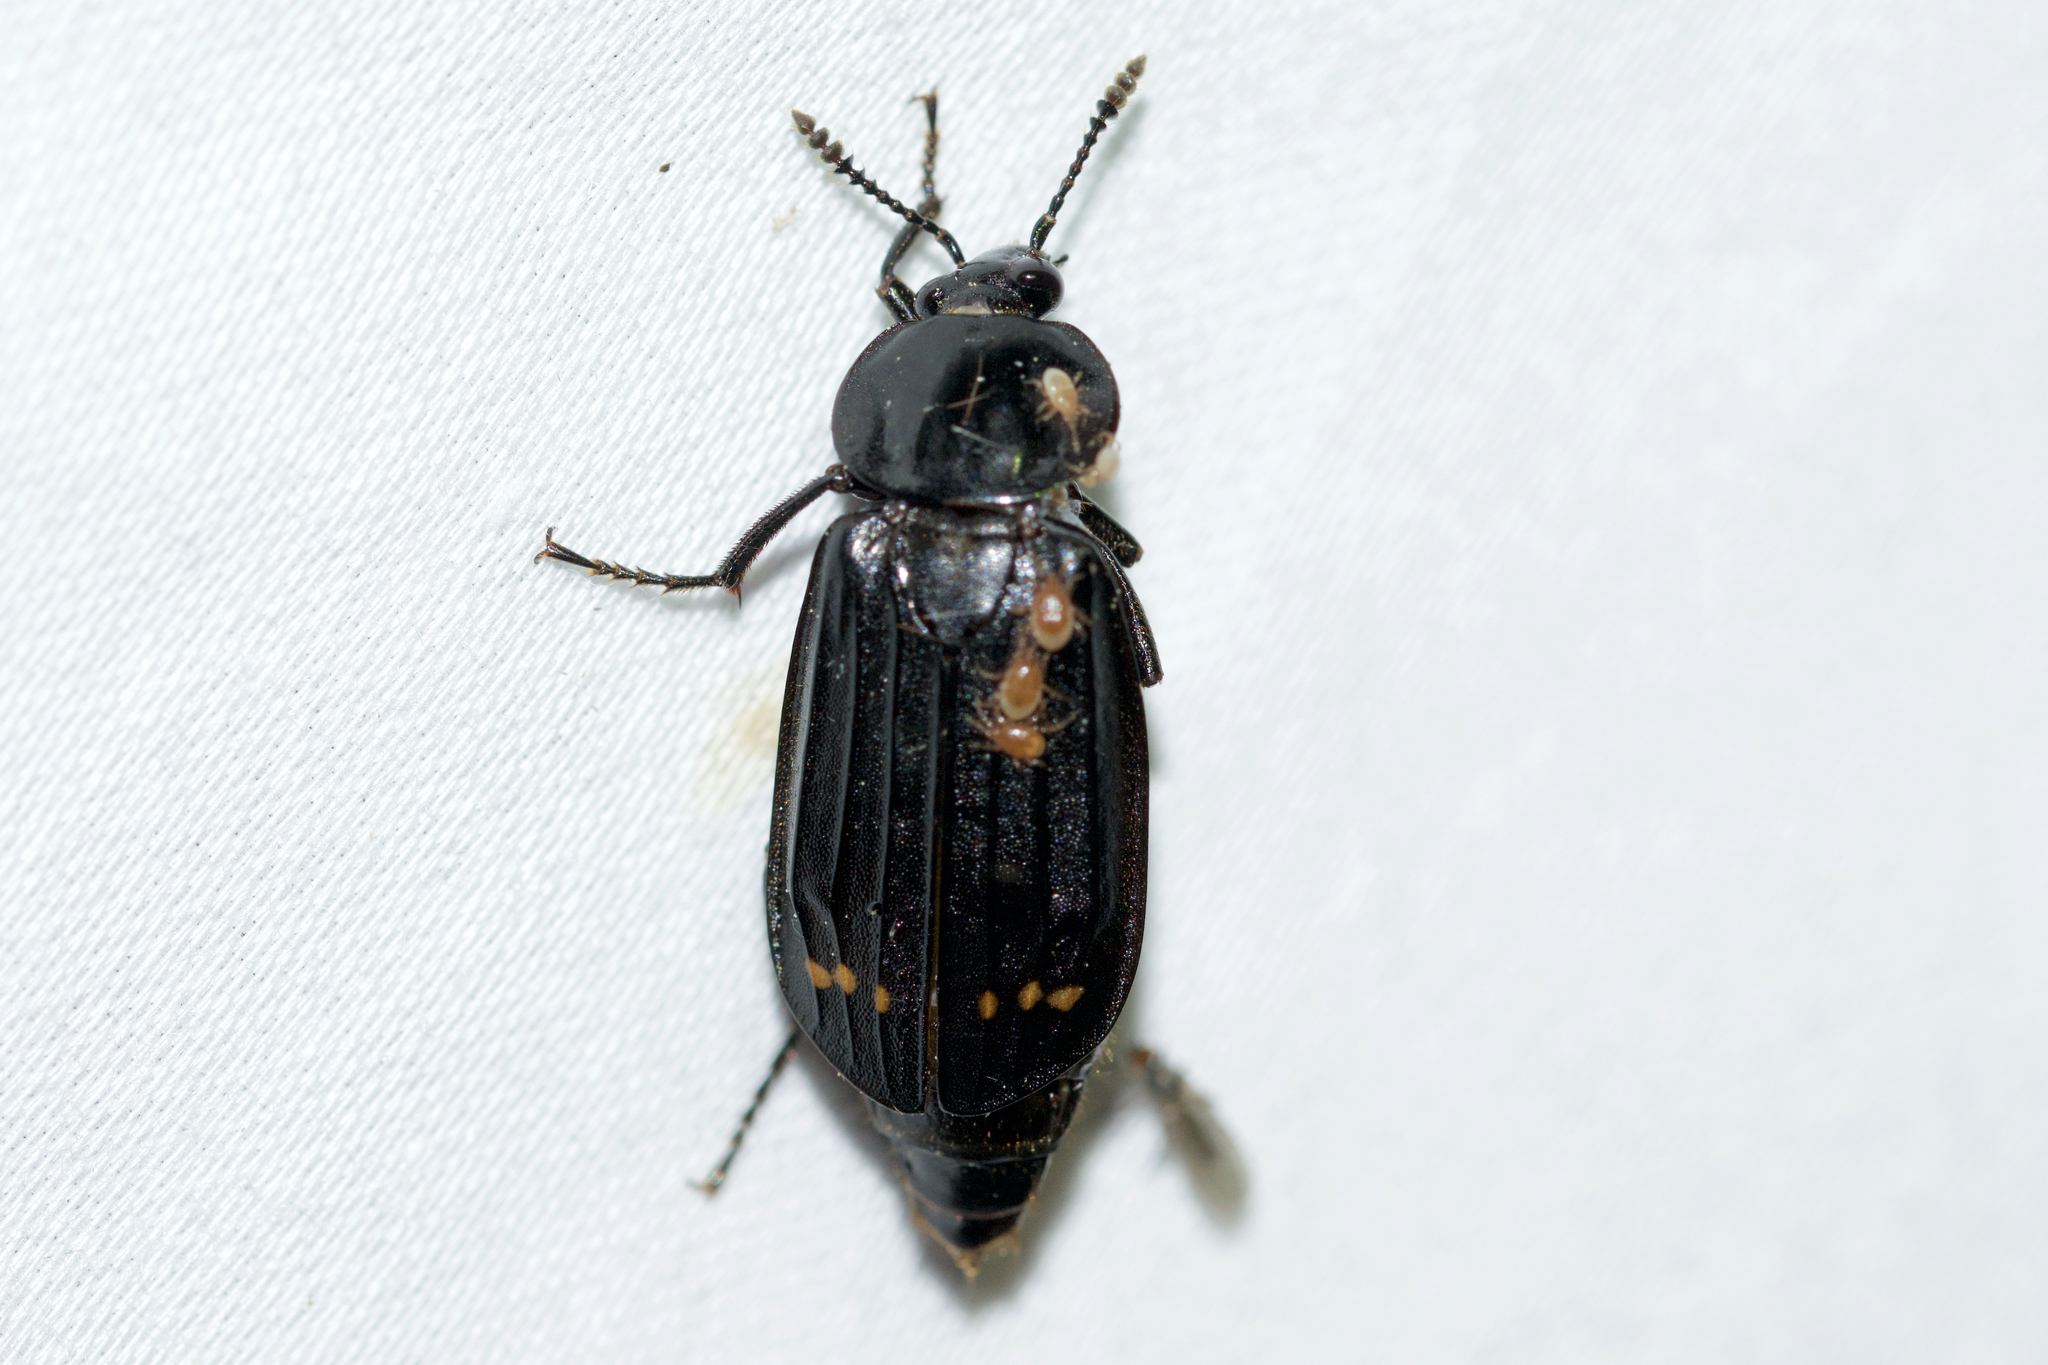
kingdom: Animalia
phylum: Arthropoda
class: Insecta
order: Coleoptera
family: Staphylinidae
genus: Necrodes
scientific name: Necrodes surinamensis
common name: Red-lined carrion beetle
